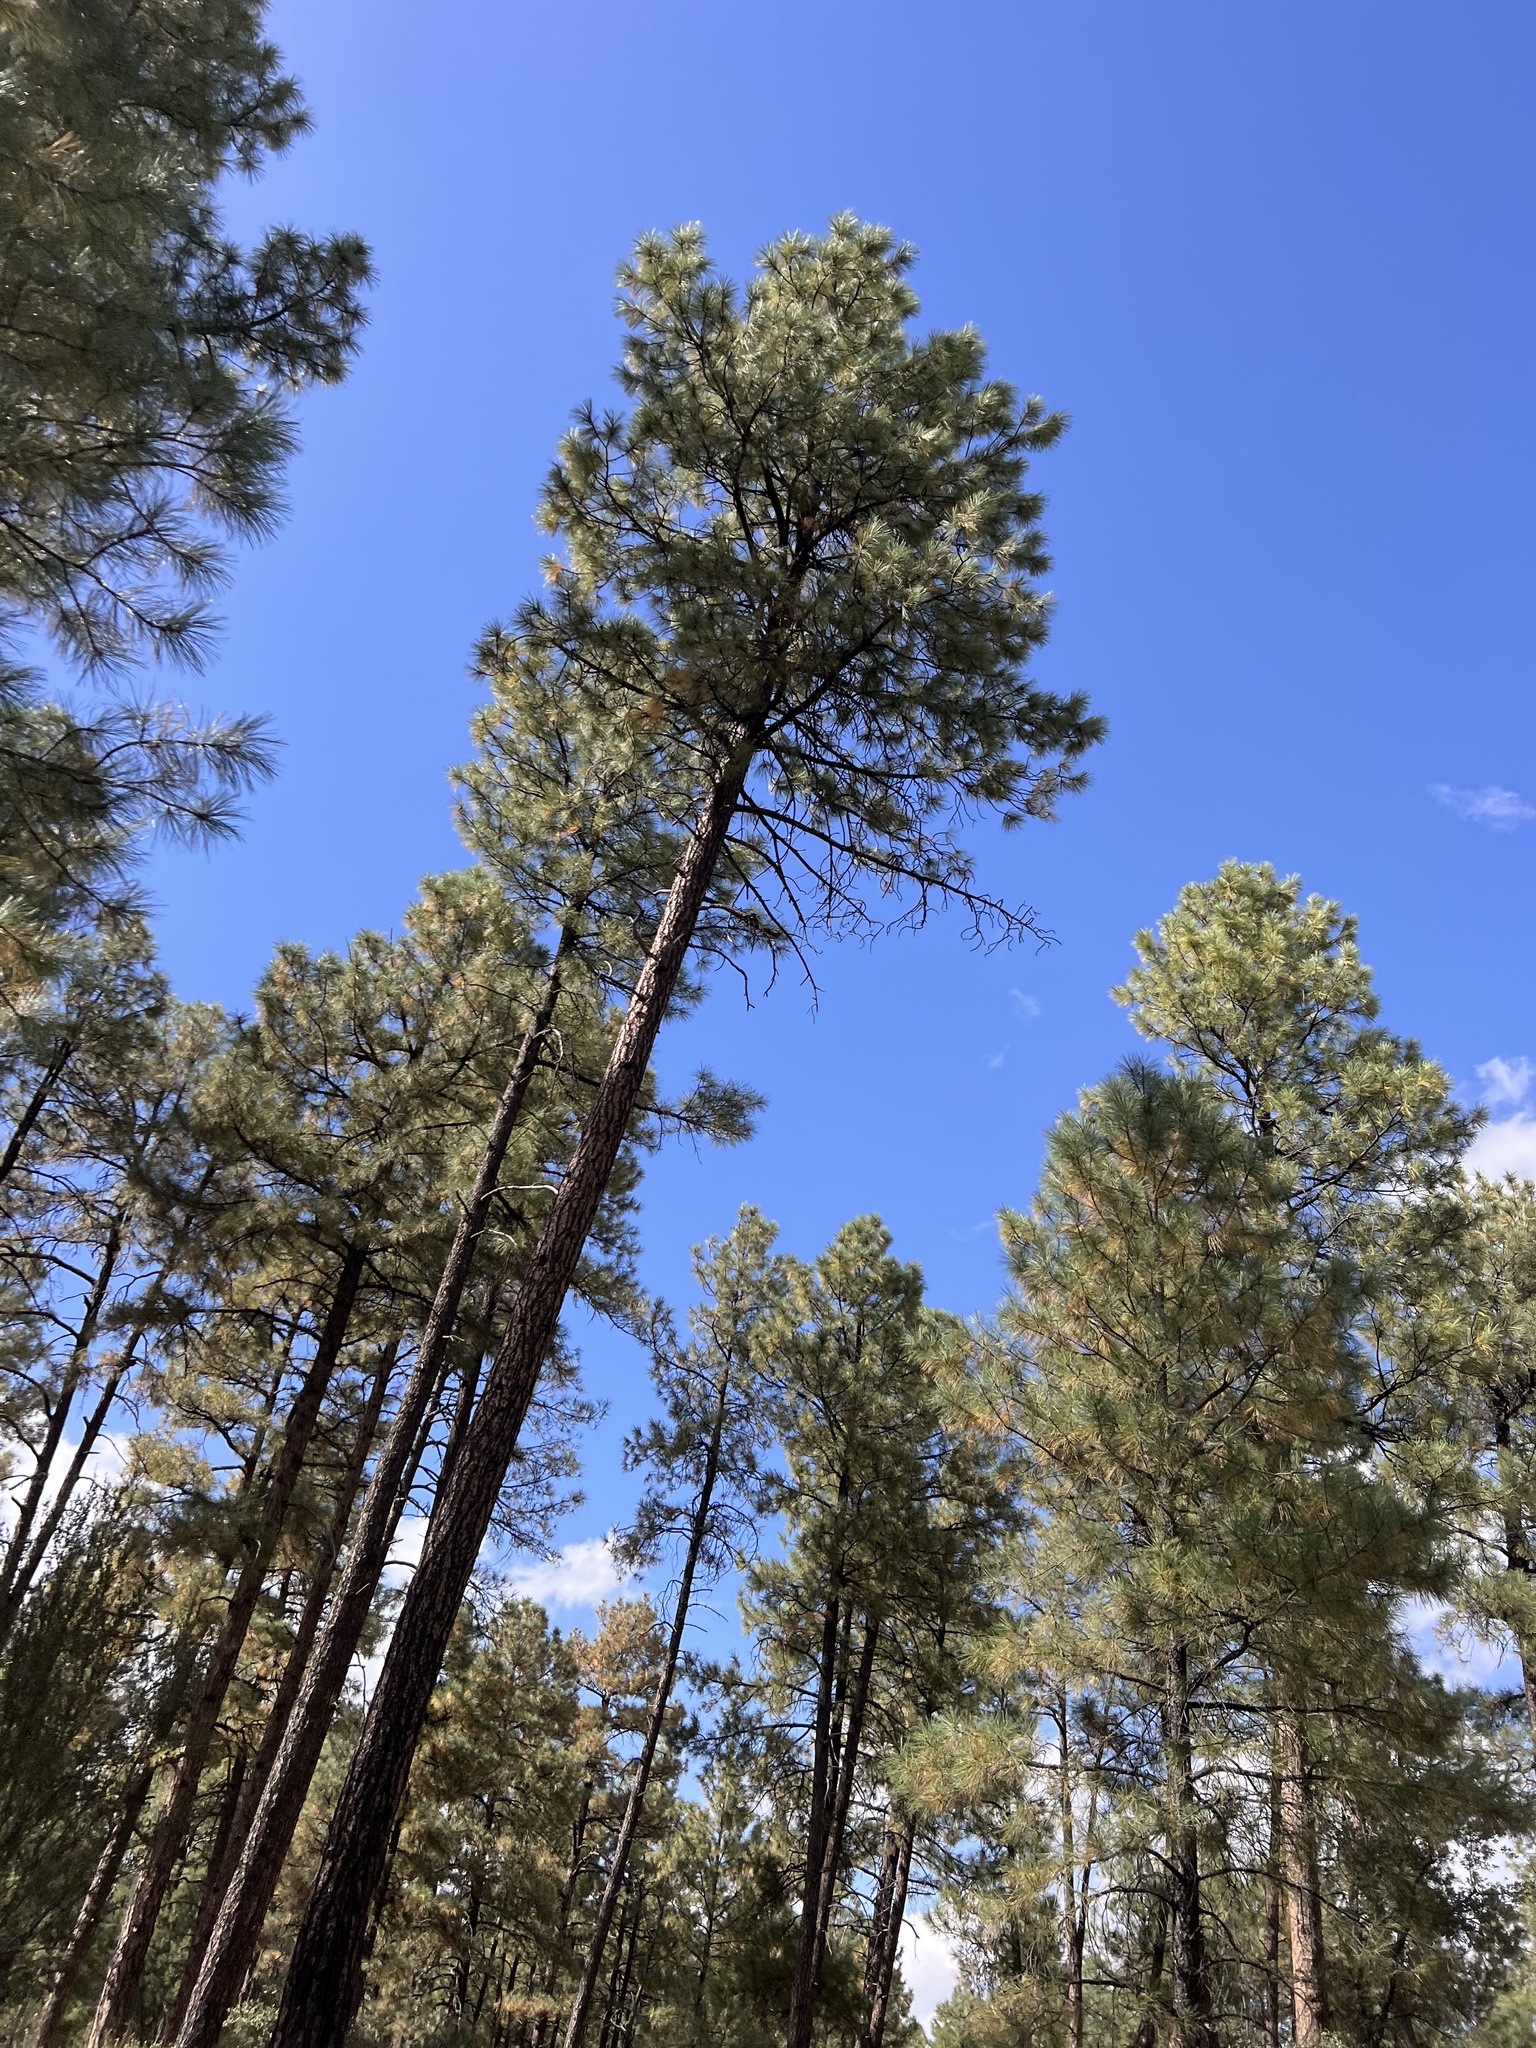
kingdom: Plantae
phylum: Tracheophyta
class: Pinopsida
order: Pinales
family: Pinaceae
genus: Pinus
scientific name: Pinus ponderosa
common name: Western yellow-pine
